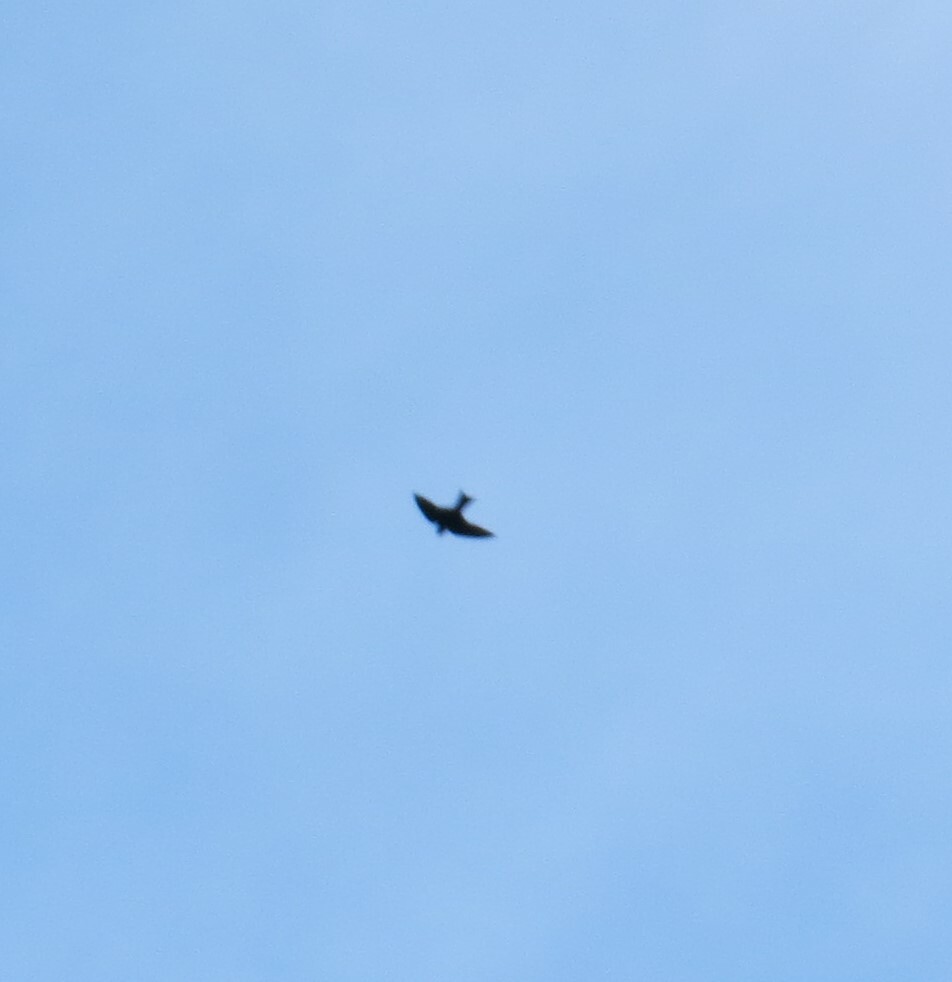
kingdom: Animalia
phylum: Chordata
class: Aves
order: Passeriformes
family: Hirundinidae
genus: Progne
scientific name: Progne subis
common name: Purple martin
